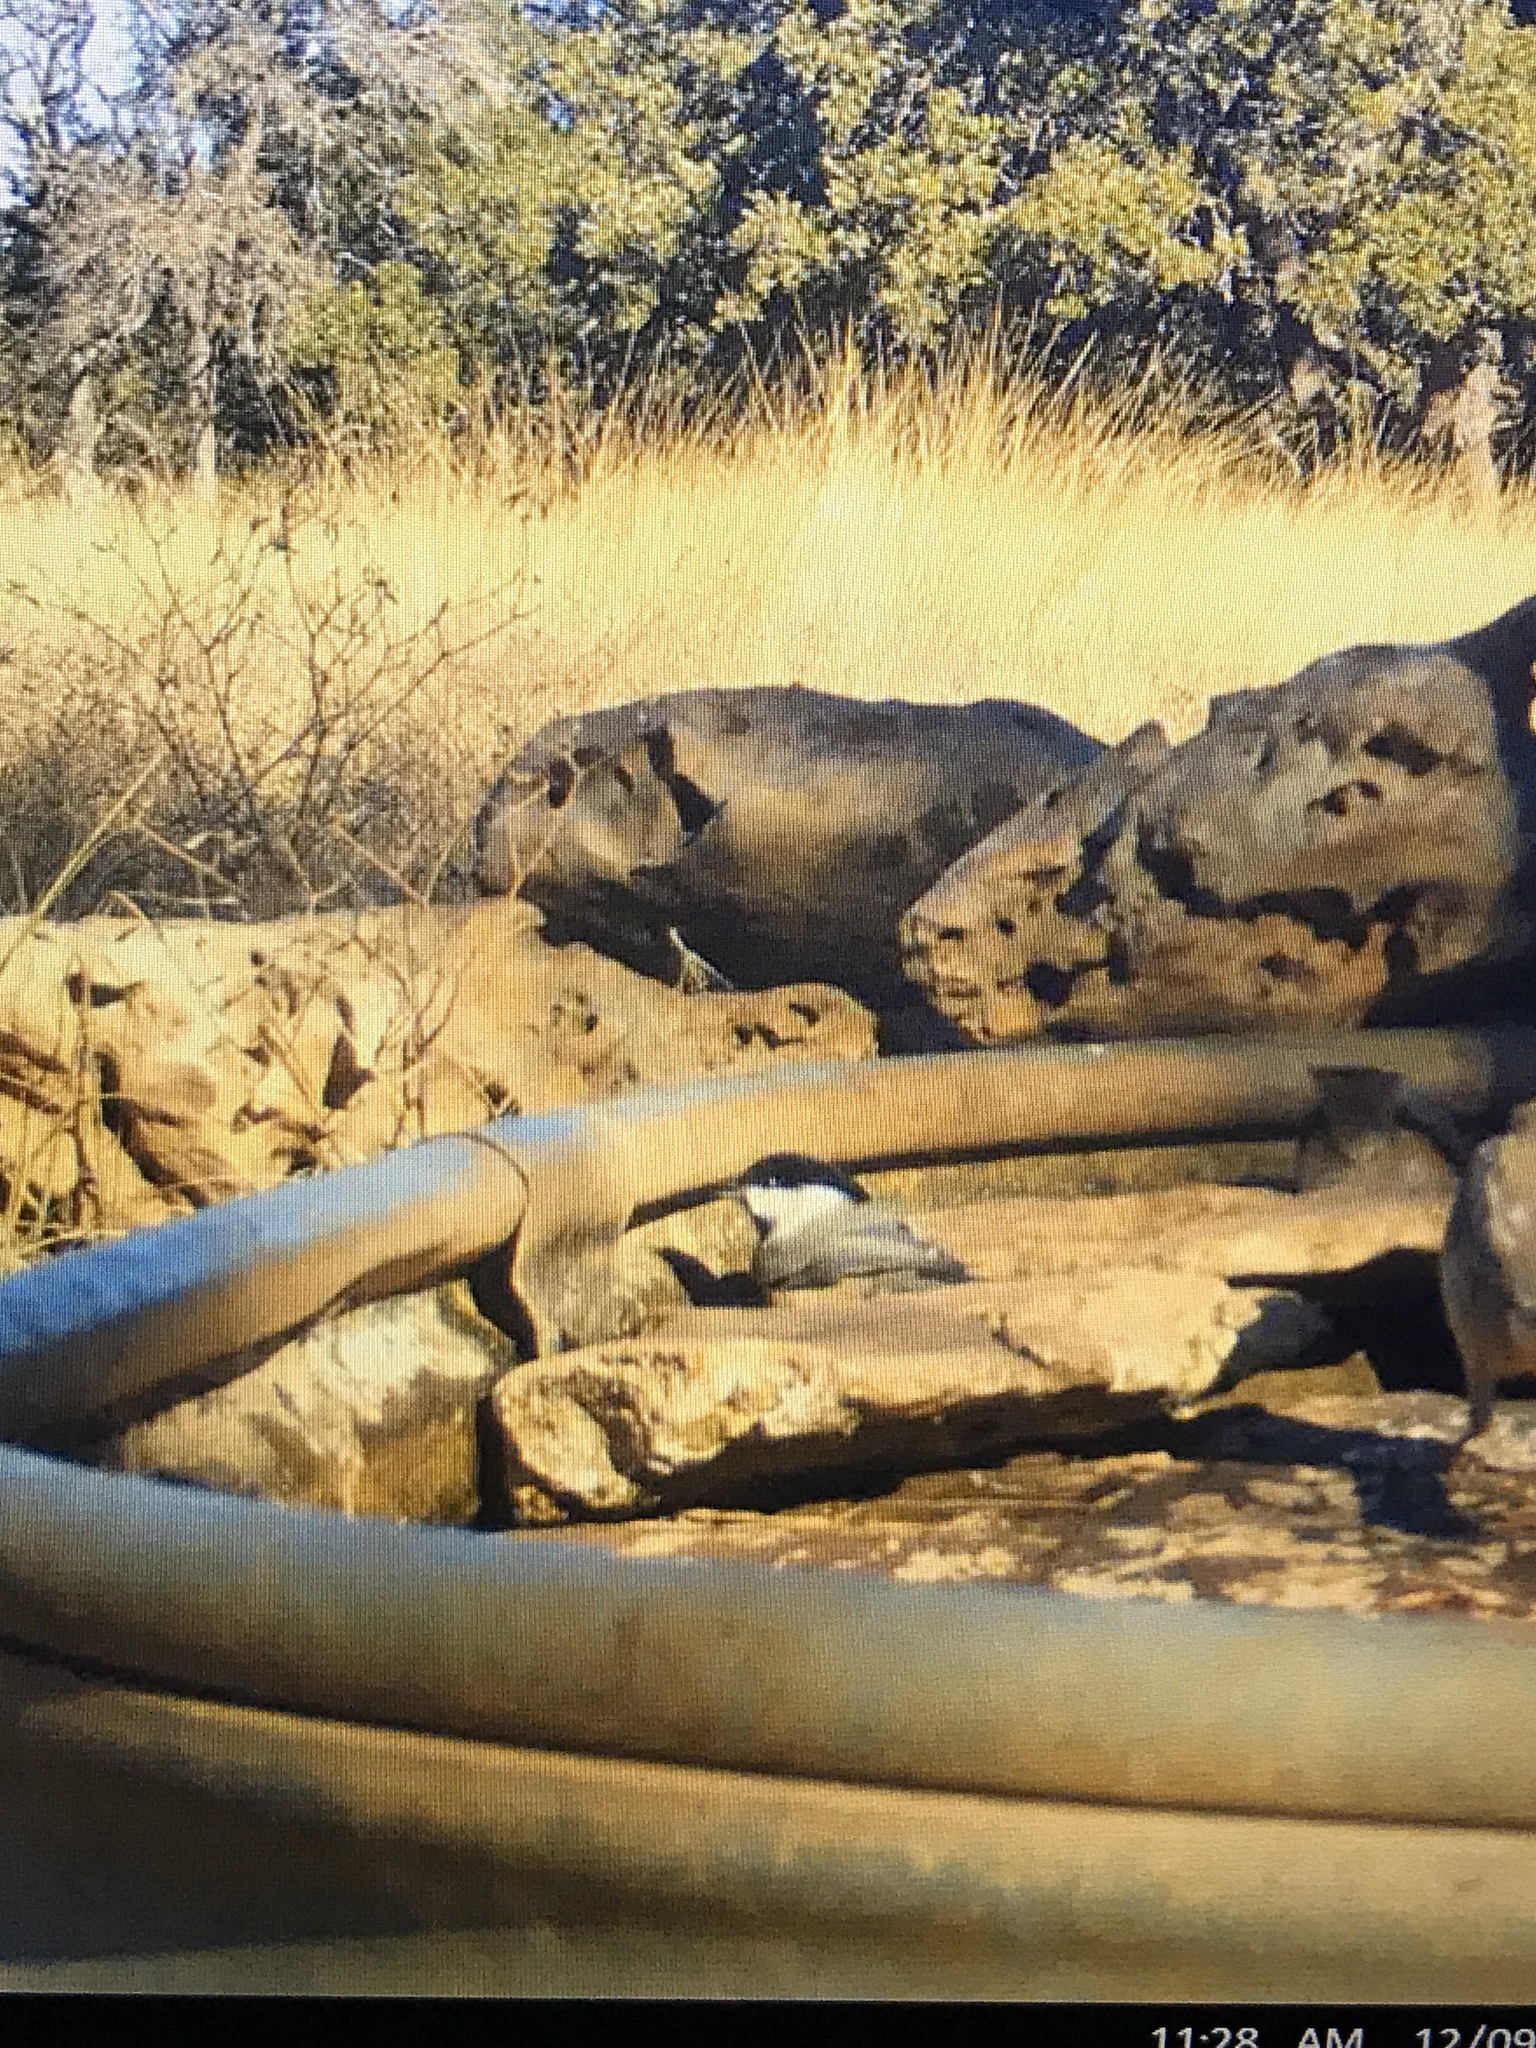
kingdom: Animalia
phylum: Chordata
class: Aves
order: Passeriformes
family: Paridae
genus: Poecile
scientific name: Poecile carolinensis
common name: Carolina chickadee
